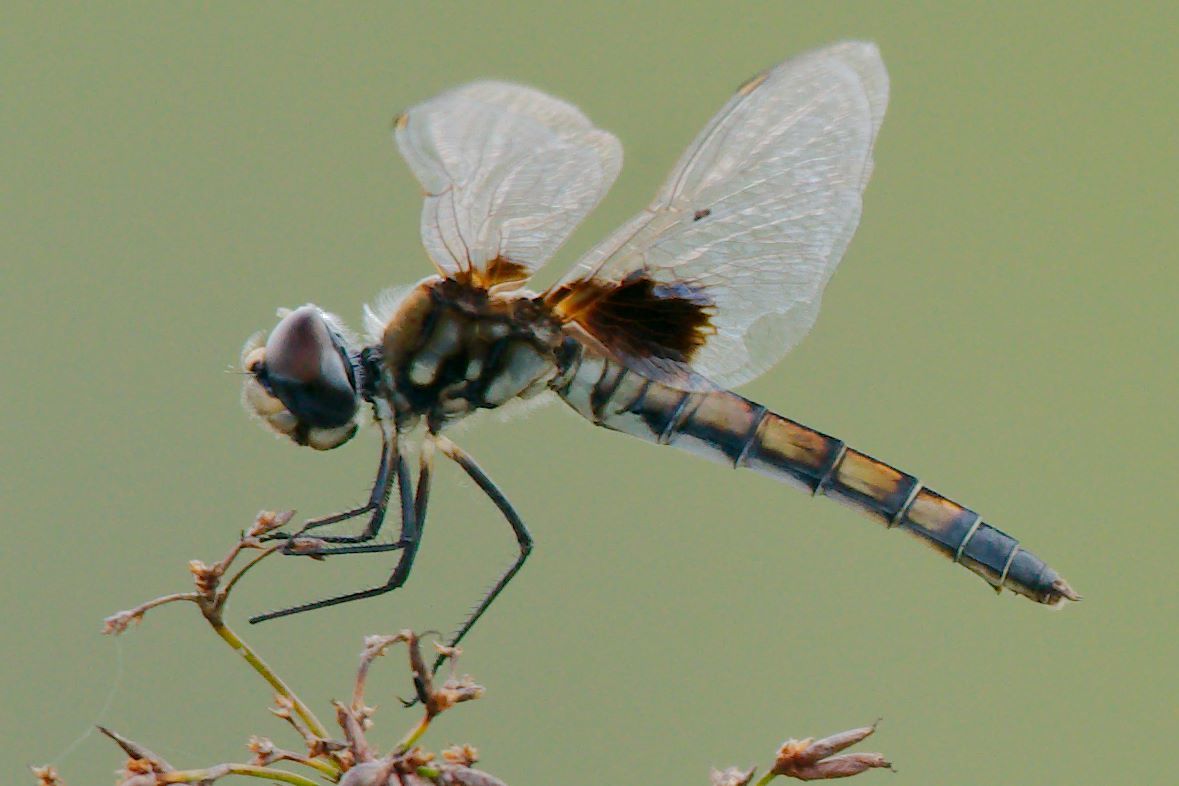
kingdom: Animalia
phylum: Arthropoda
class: Insecta
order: Odonata
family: Libellulidae
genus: Macrodiplax
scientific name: Macrodiplax balteata
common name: Marl pennant
